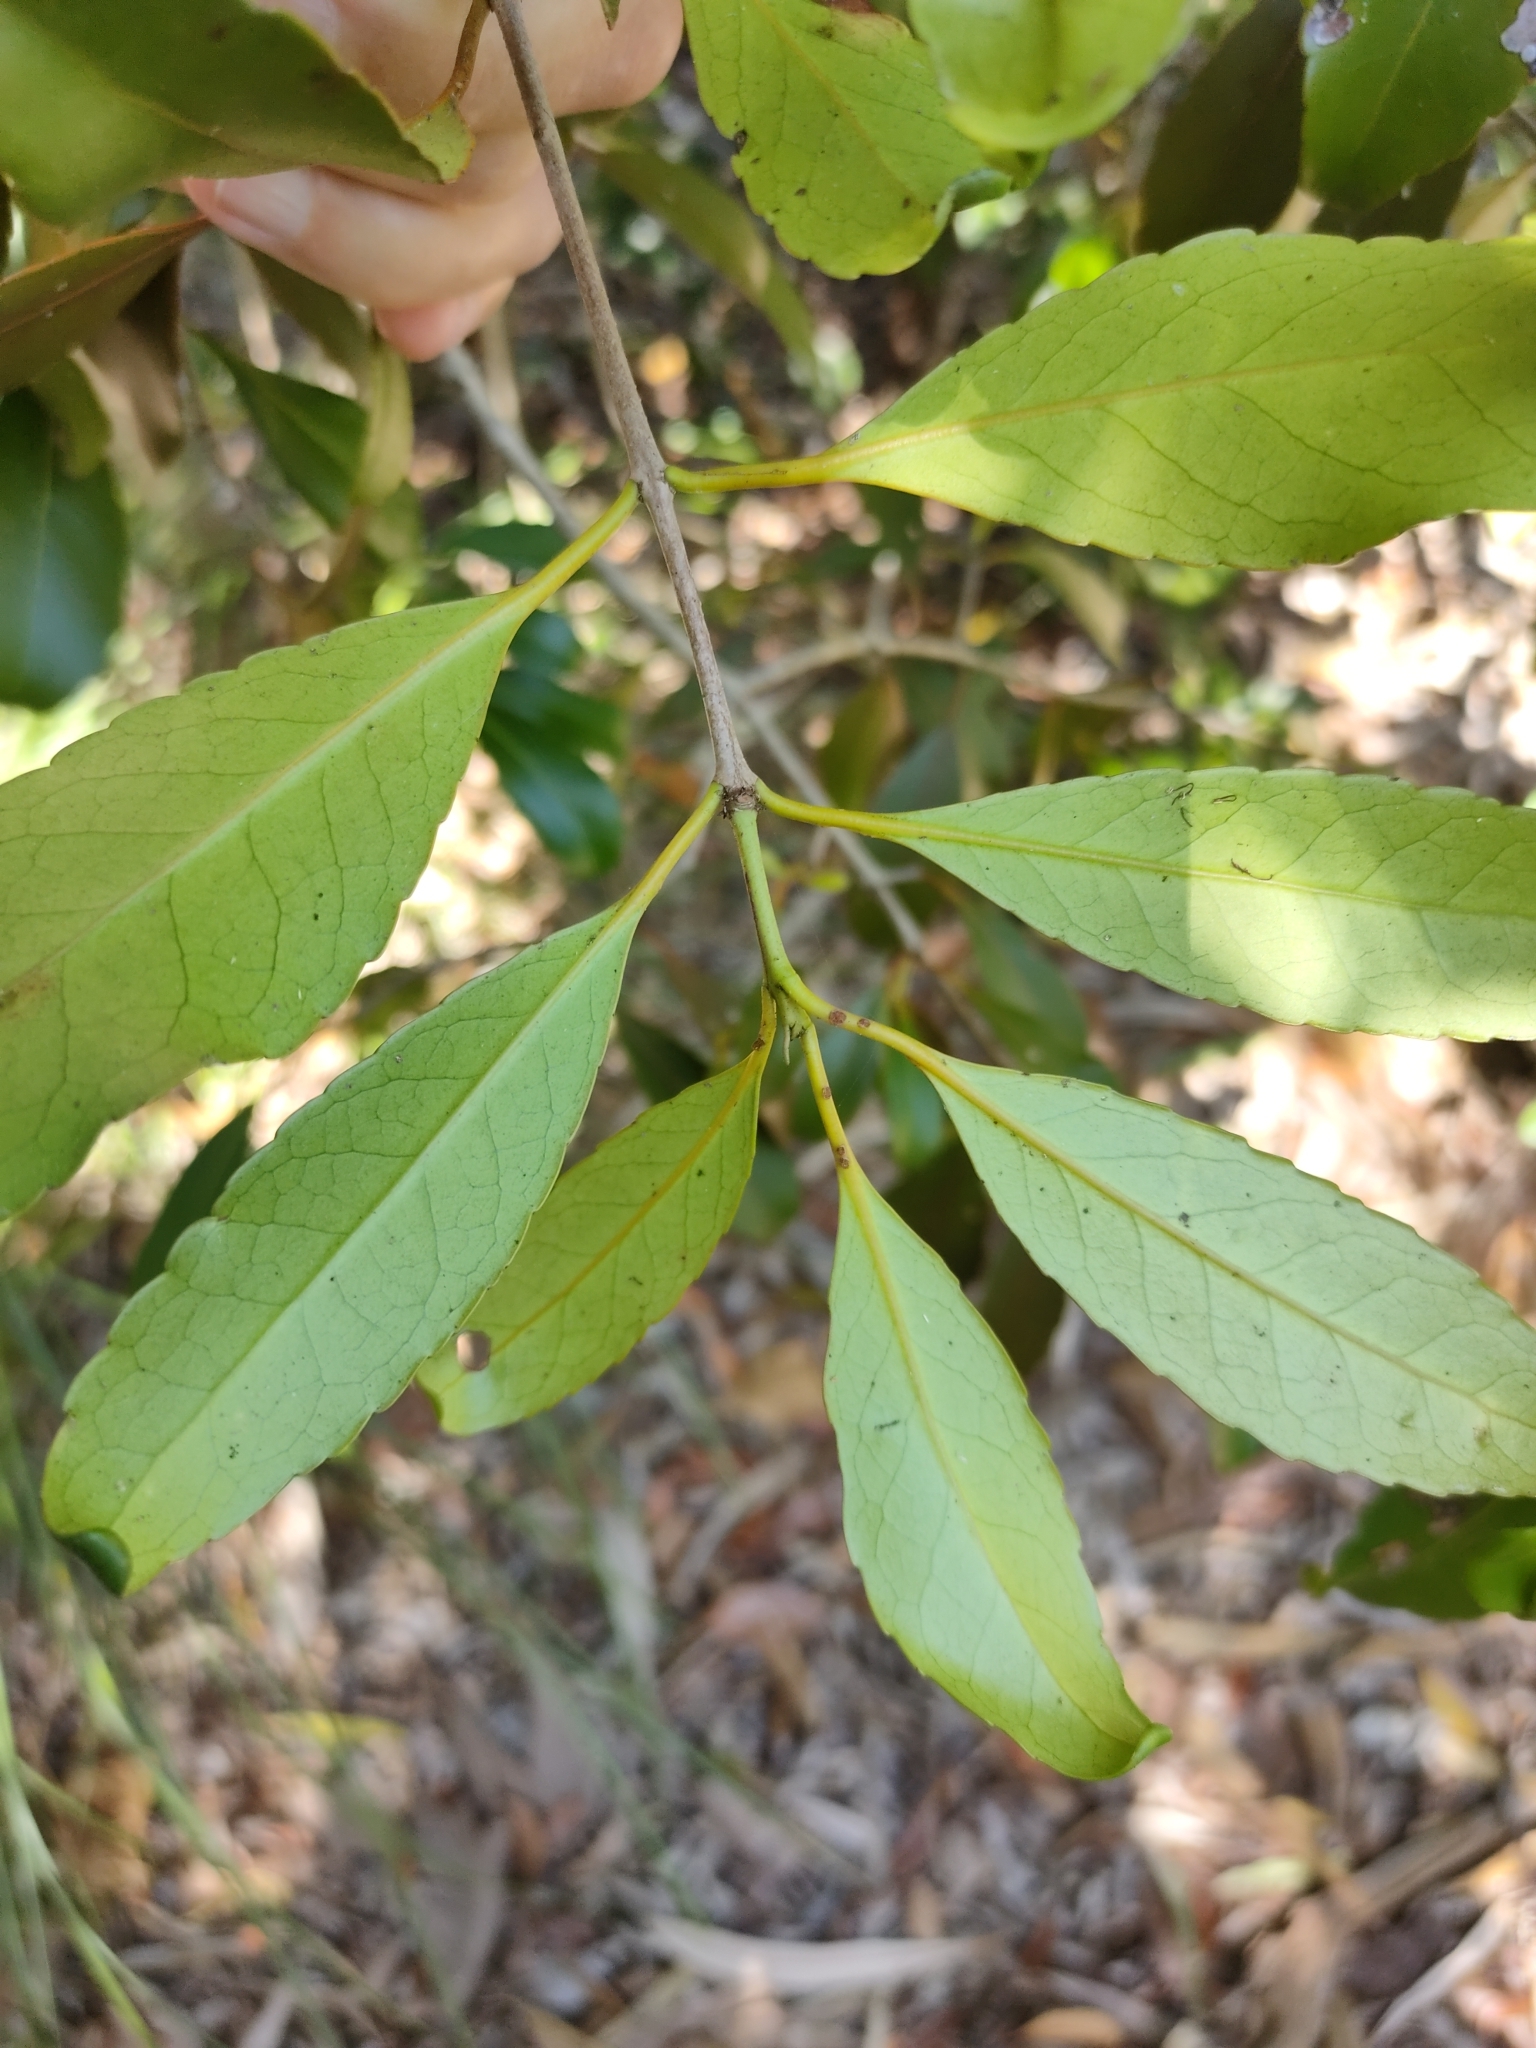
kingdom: Plantae
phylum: Tracheophyta
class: Magnoliopsida
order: Celastrales
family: Celastraceae
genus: Elaeodendron
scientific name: Elaeodendron melanocarpum
